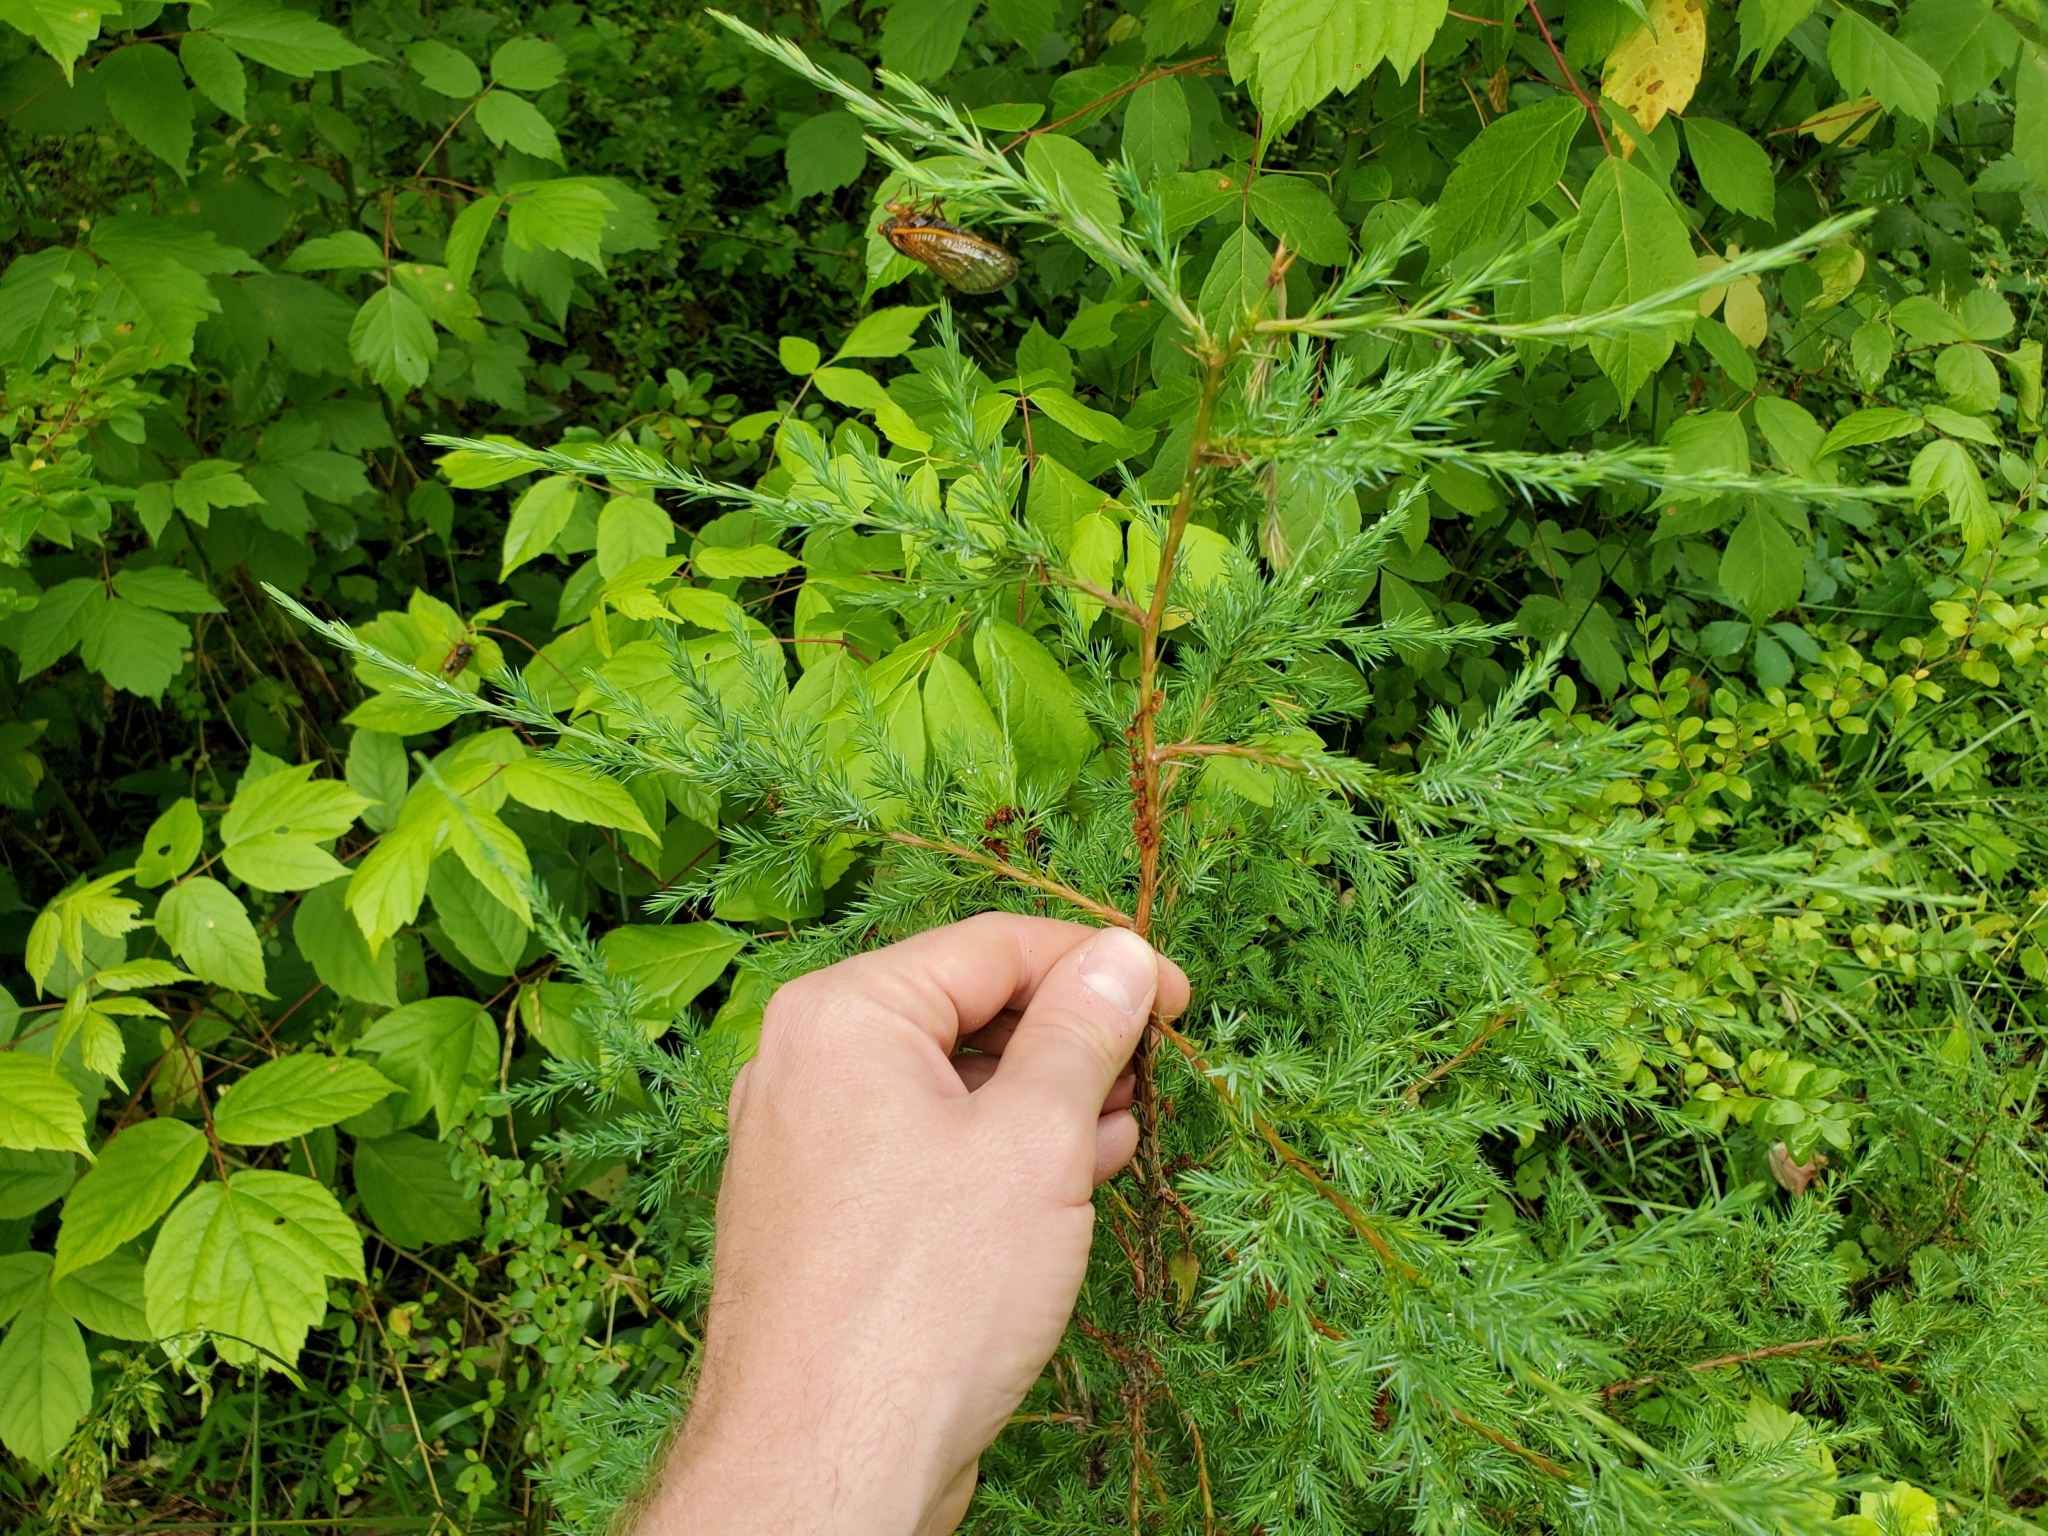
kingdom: Plantae
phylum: Tracheophyta
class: Pinopsida
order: Pinales
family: Cupressaceae
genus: Juniperus
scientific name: Juniperus virginiana
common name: Red juniper
